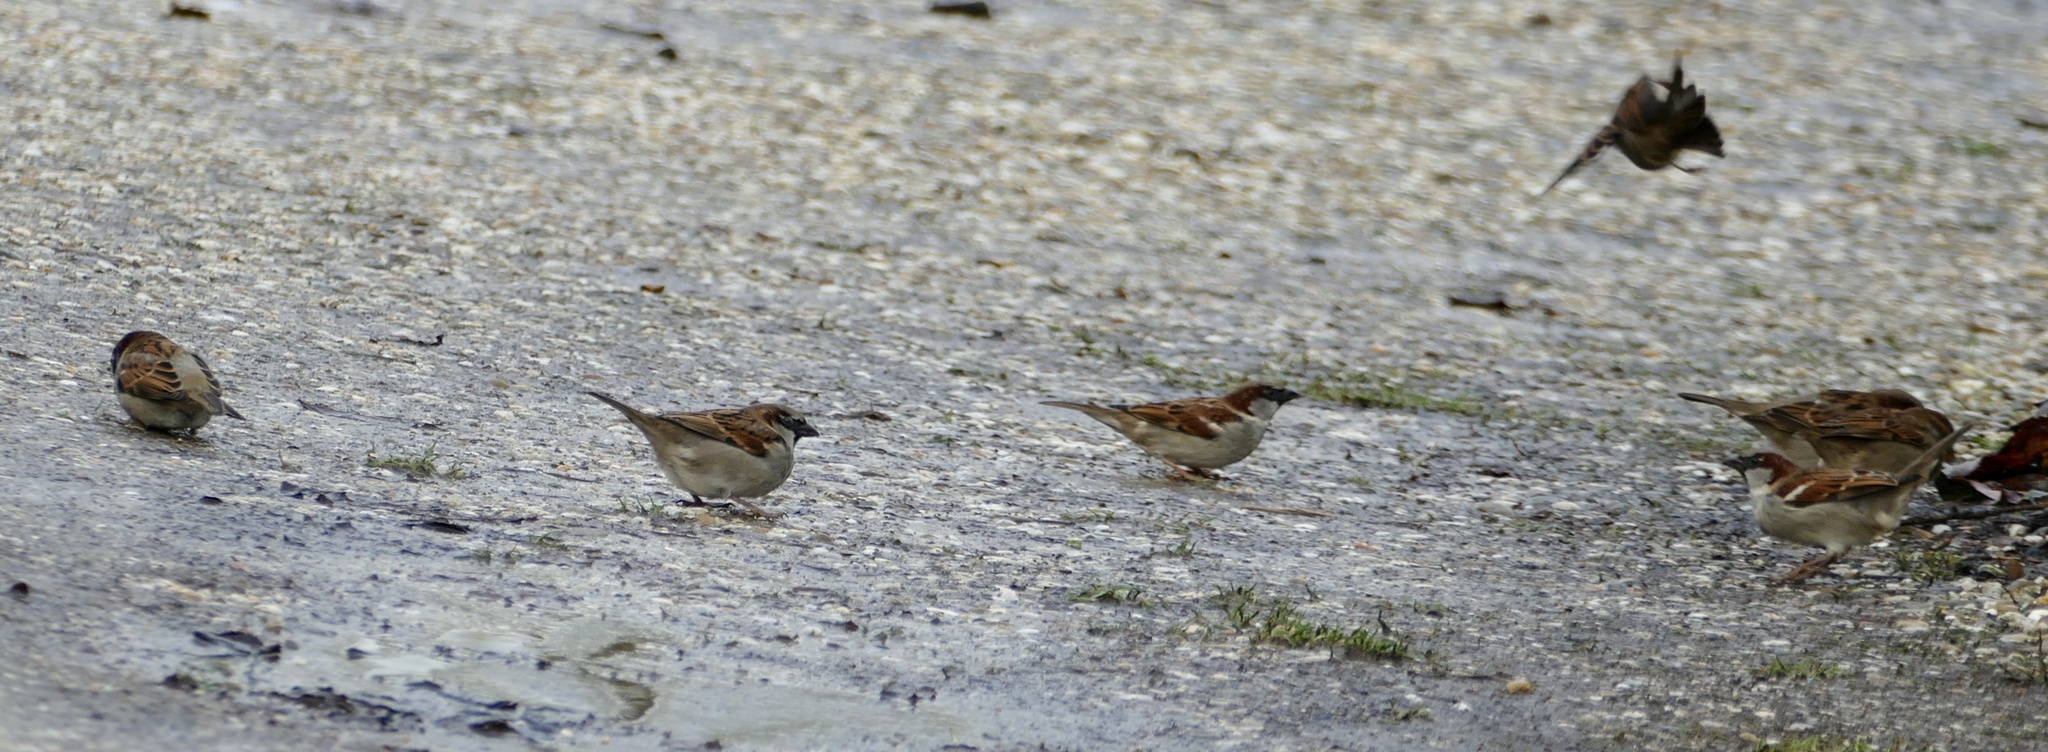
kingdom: Animalia
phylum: Chordata
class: Aves
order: Passeriformes
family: Passeridae
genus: Passer
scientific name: Passer domesticus
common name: House sparrow
